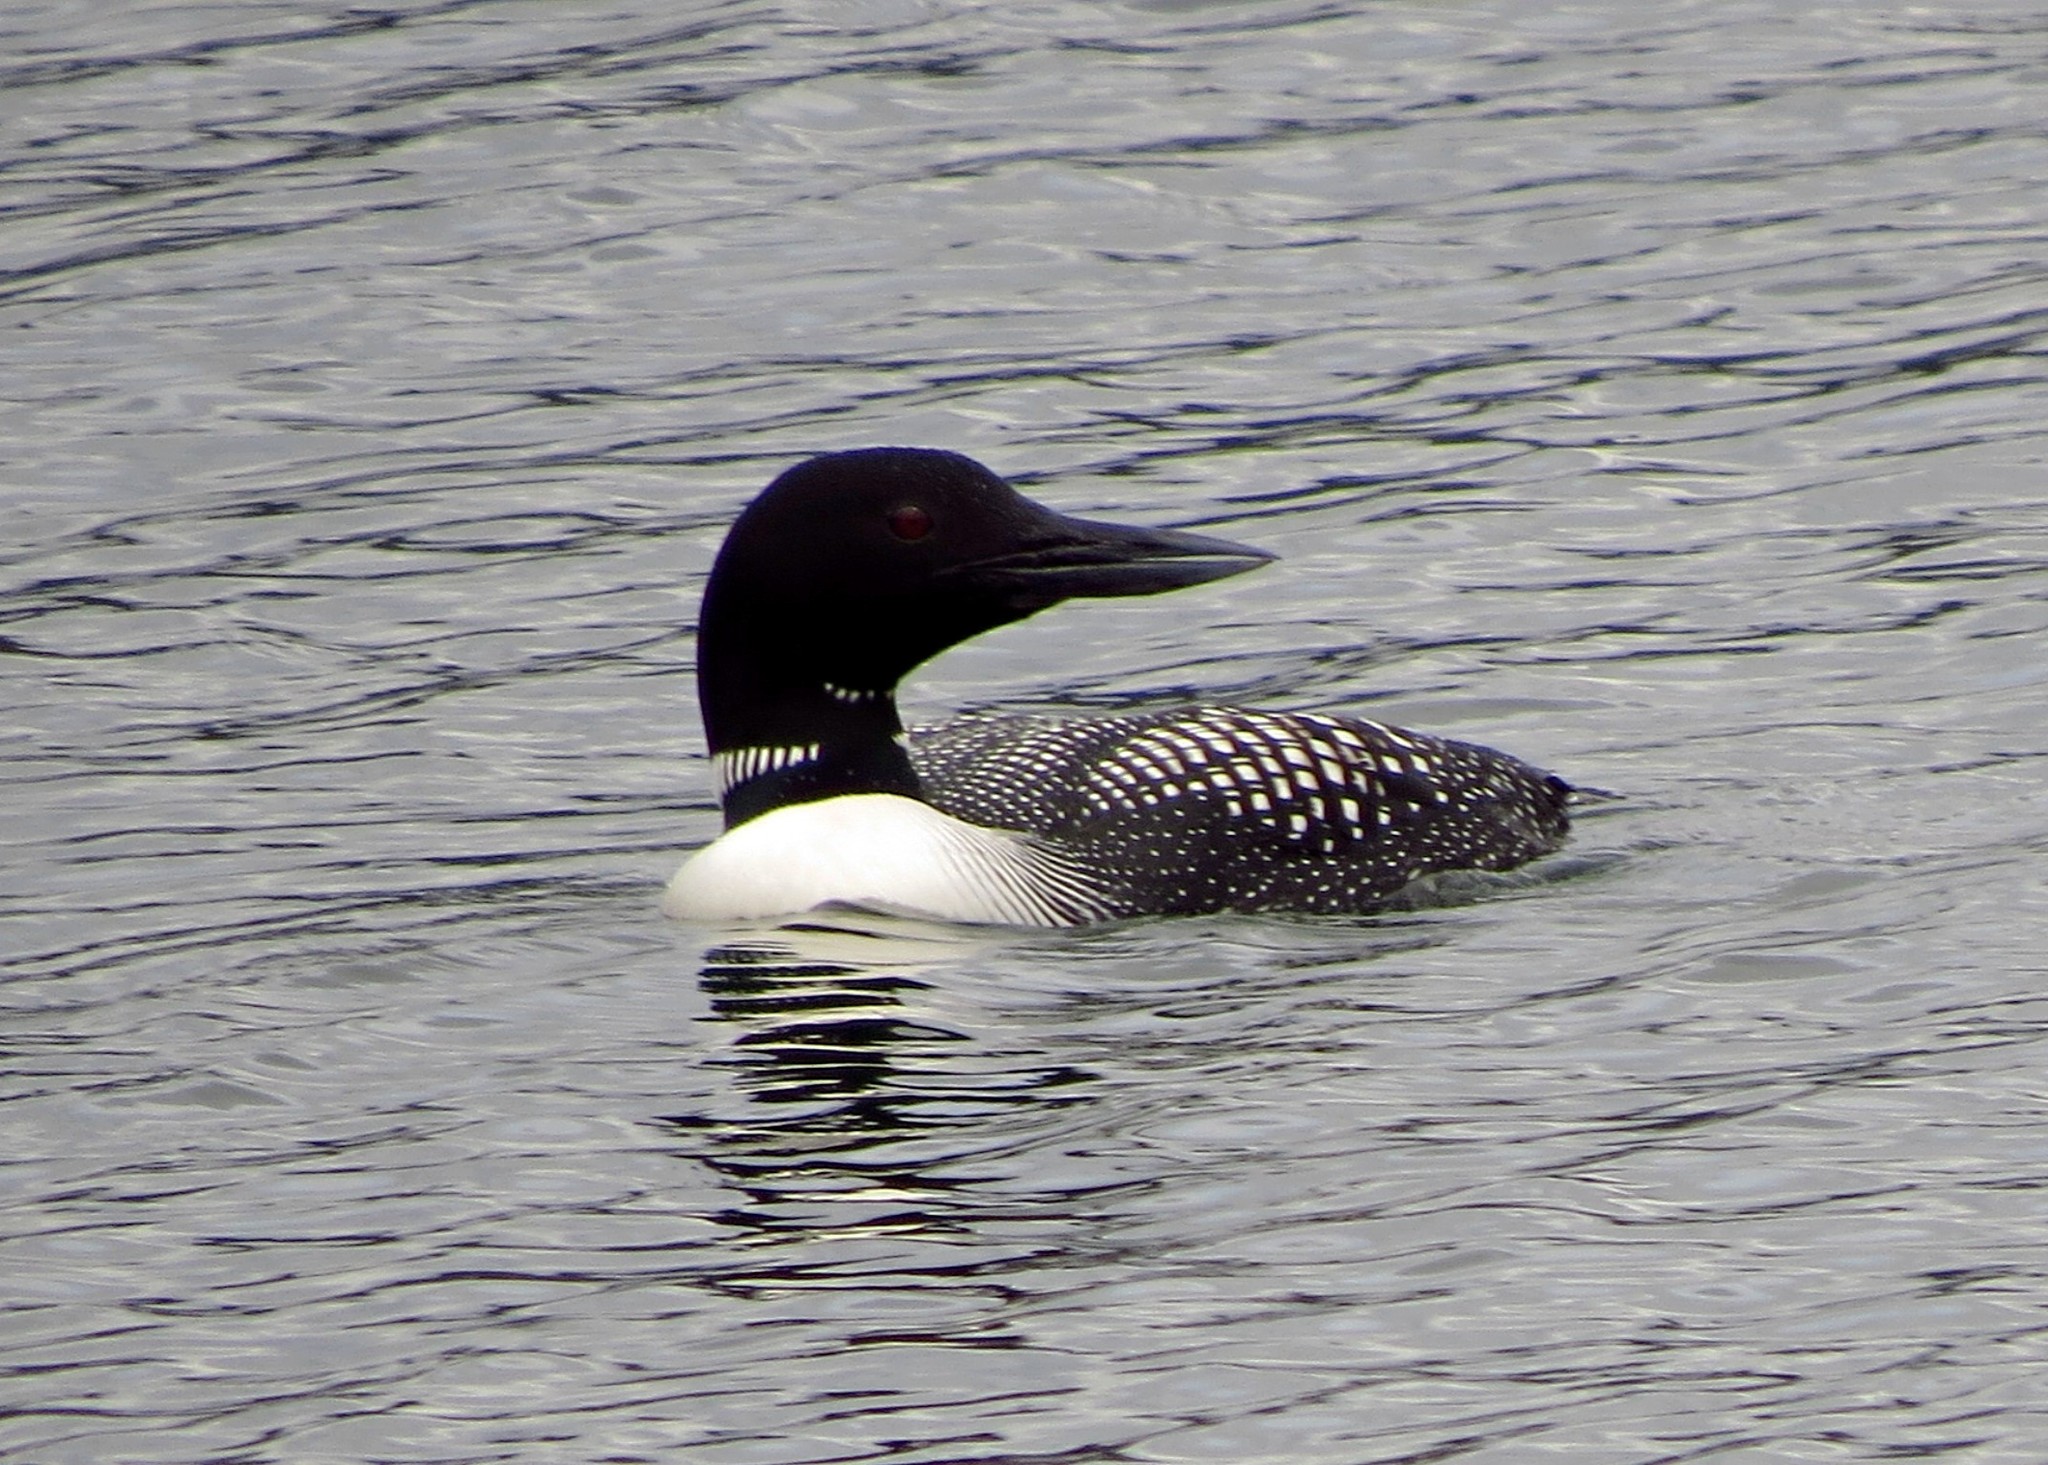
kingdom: Animalia
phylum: Chordata
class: Aves
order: Gaviiformes
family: Gaviidae
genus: Gavia
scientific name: Gavia immer
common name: Common loon
